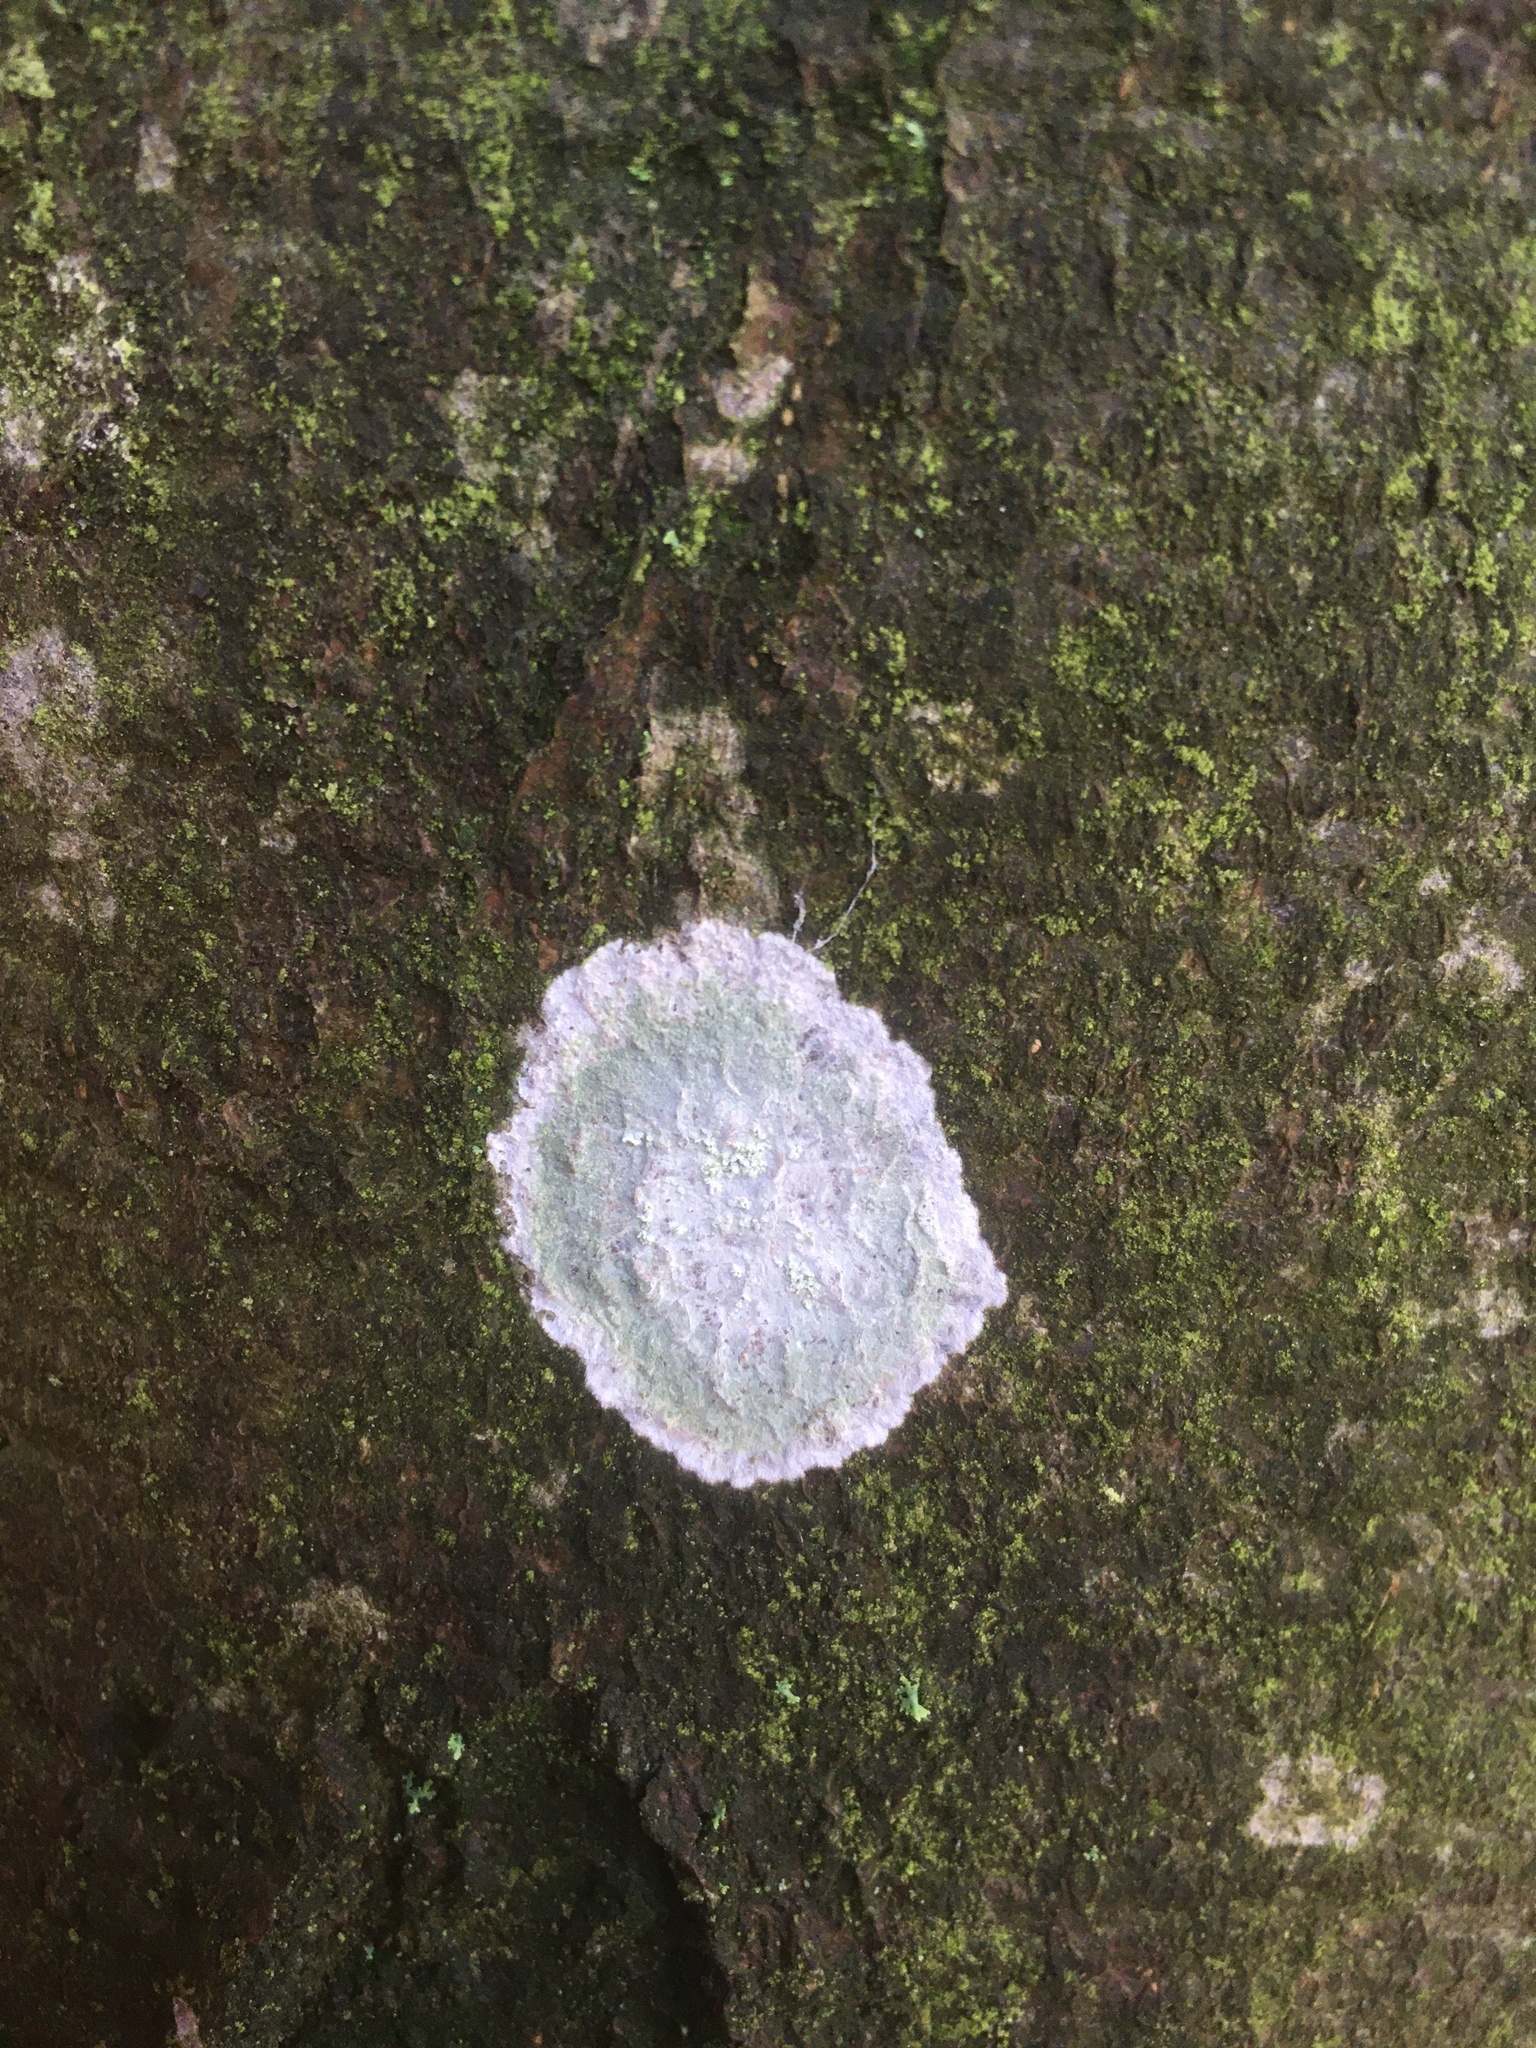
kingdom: Fungi
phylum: Ascomycota
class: Lecanoromycetes
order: Ostropales
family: Phlyctidaceae
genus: Phlyctis
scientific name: Phlyctis argena
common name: Whitewash lichen
